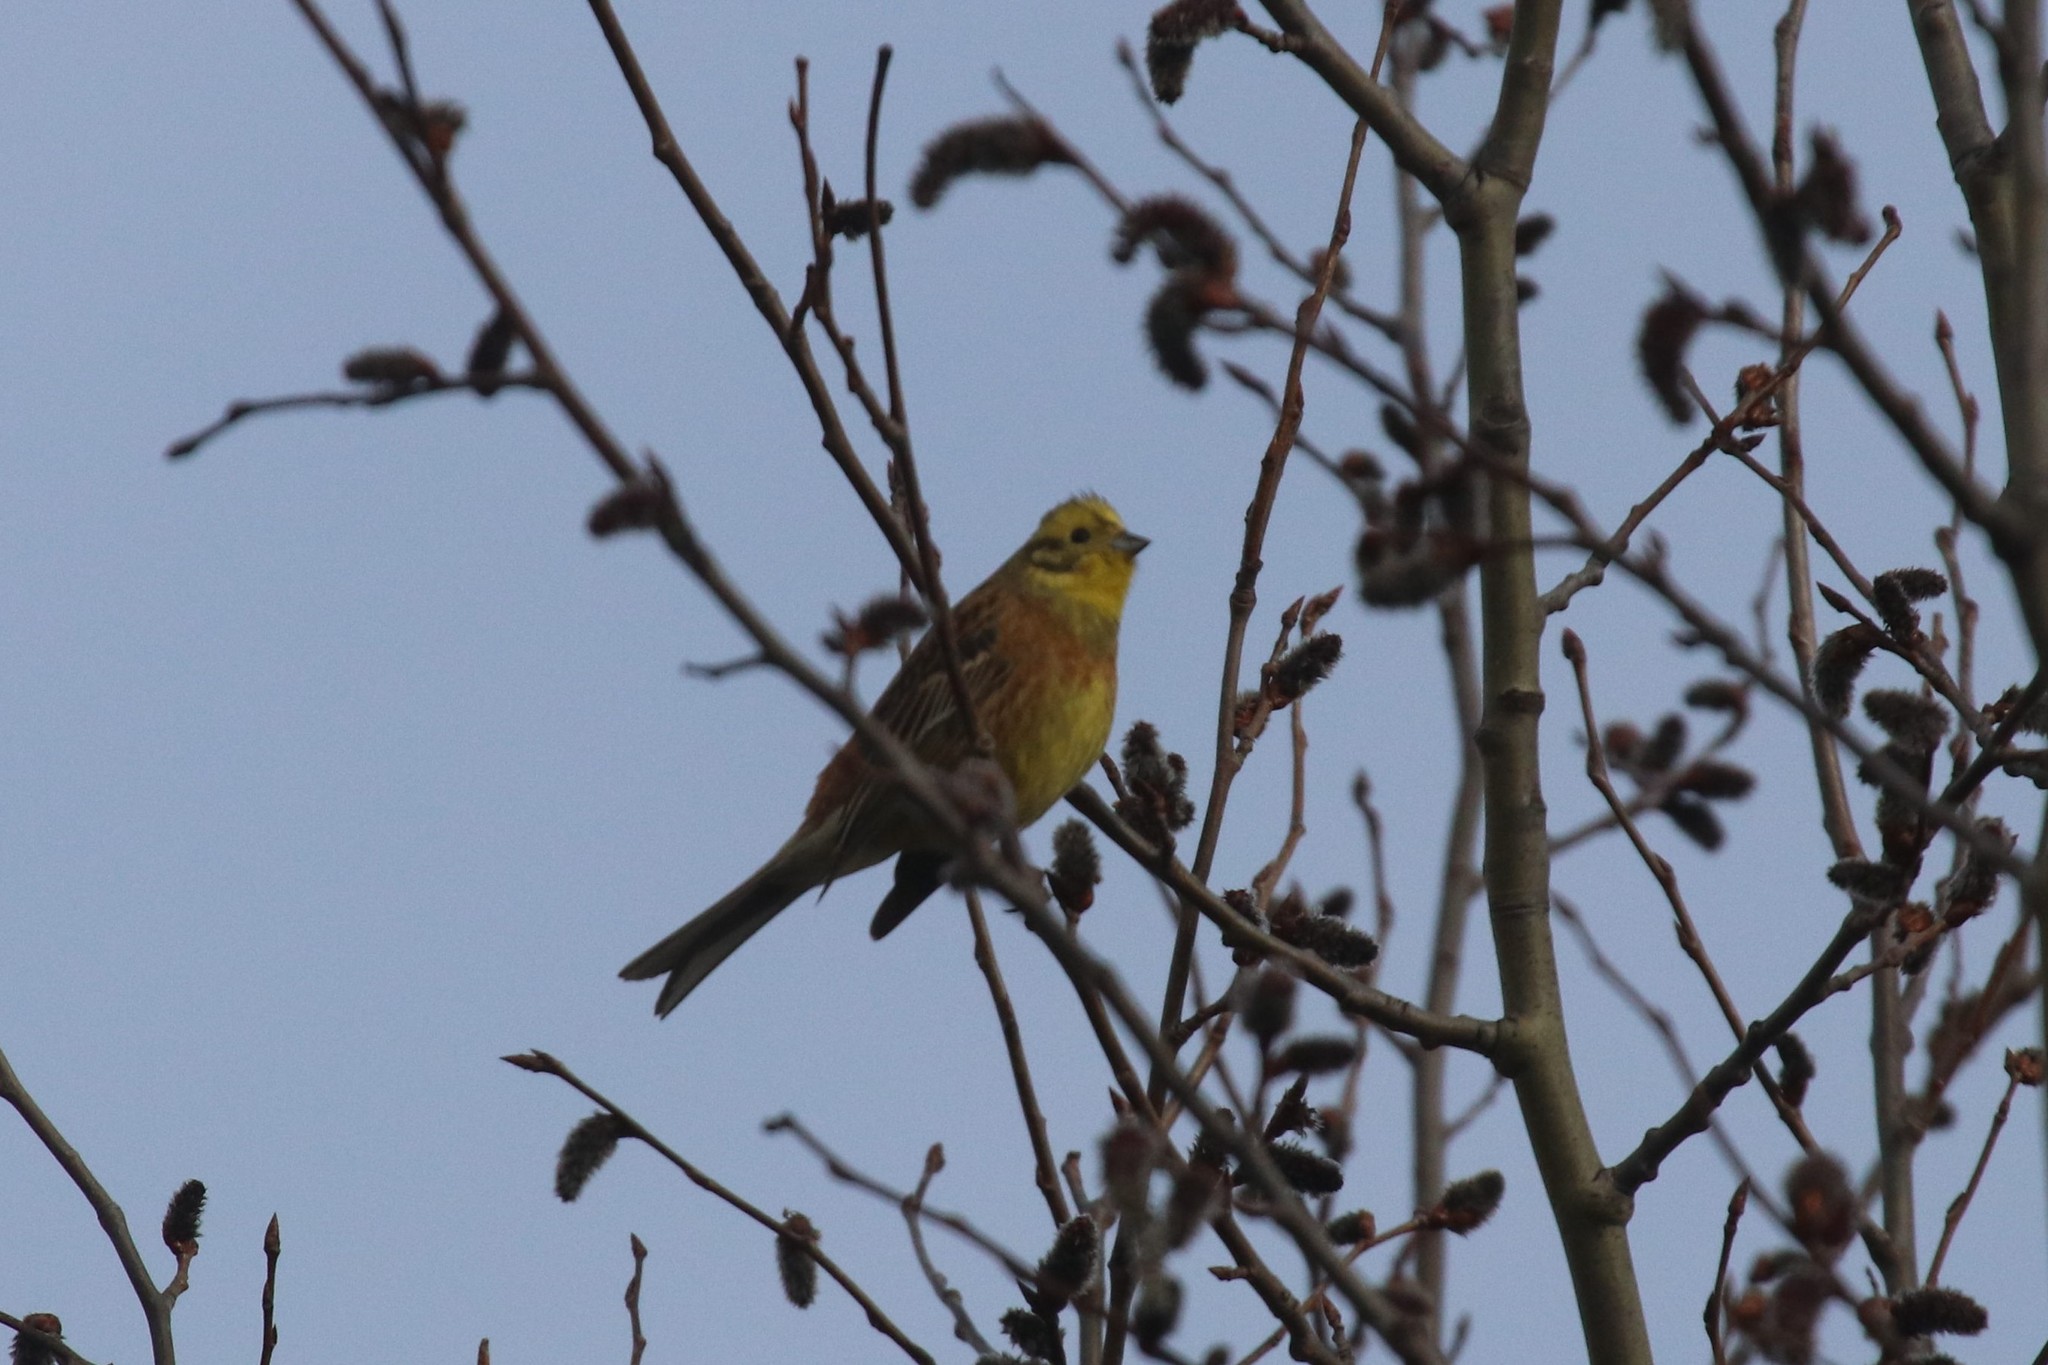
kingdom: Animalia
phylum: Chordata
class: Aves
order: Passeriformes
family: Emberizidae
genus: Emberiza
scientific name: Emberiza citrinella
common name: Yellowhammer
